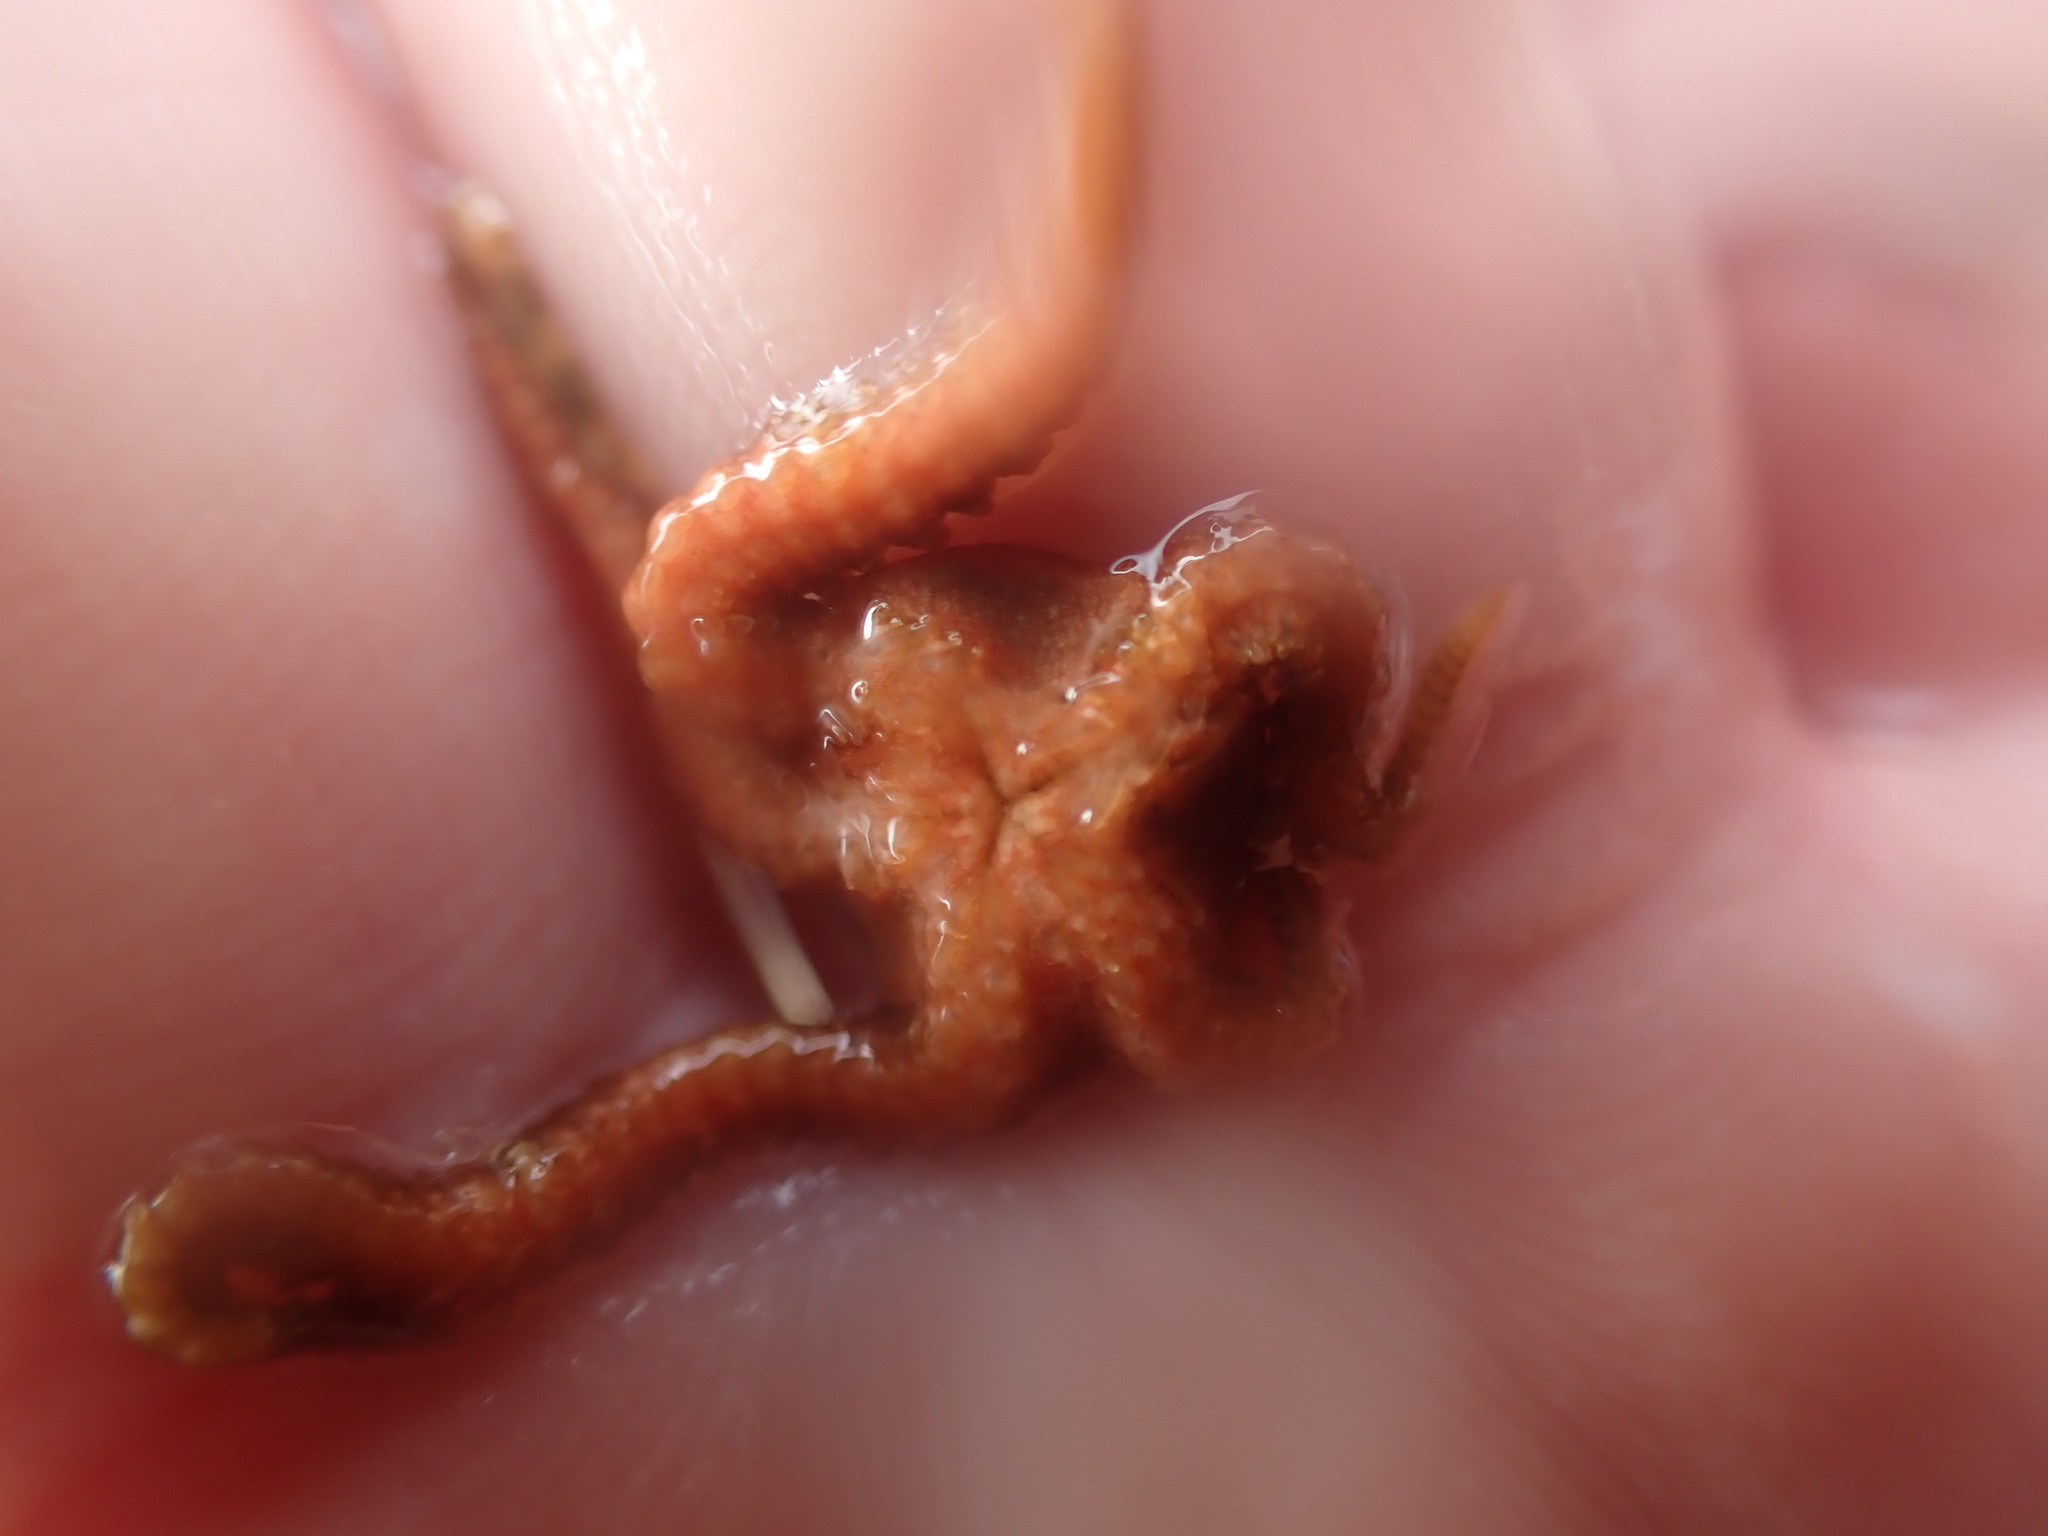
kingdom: Animalia
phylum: Echinodermata
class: Ophiuroidea
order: Ophiacanthida
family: Ophiomyxidae
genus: Ophiomyxa
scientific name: Ophiomyxa brevirima
